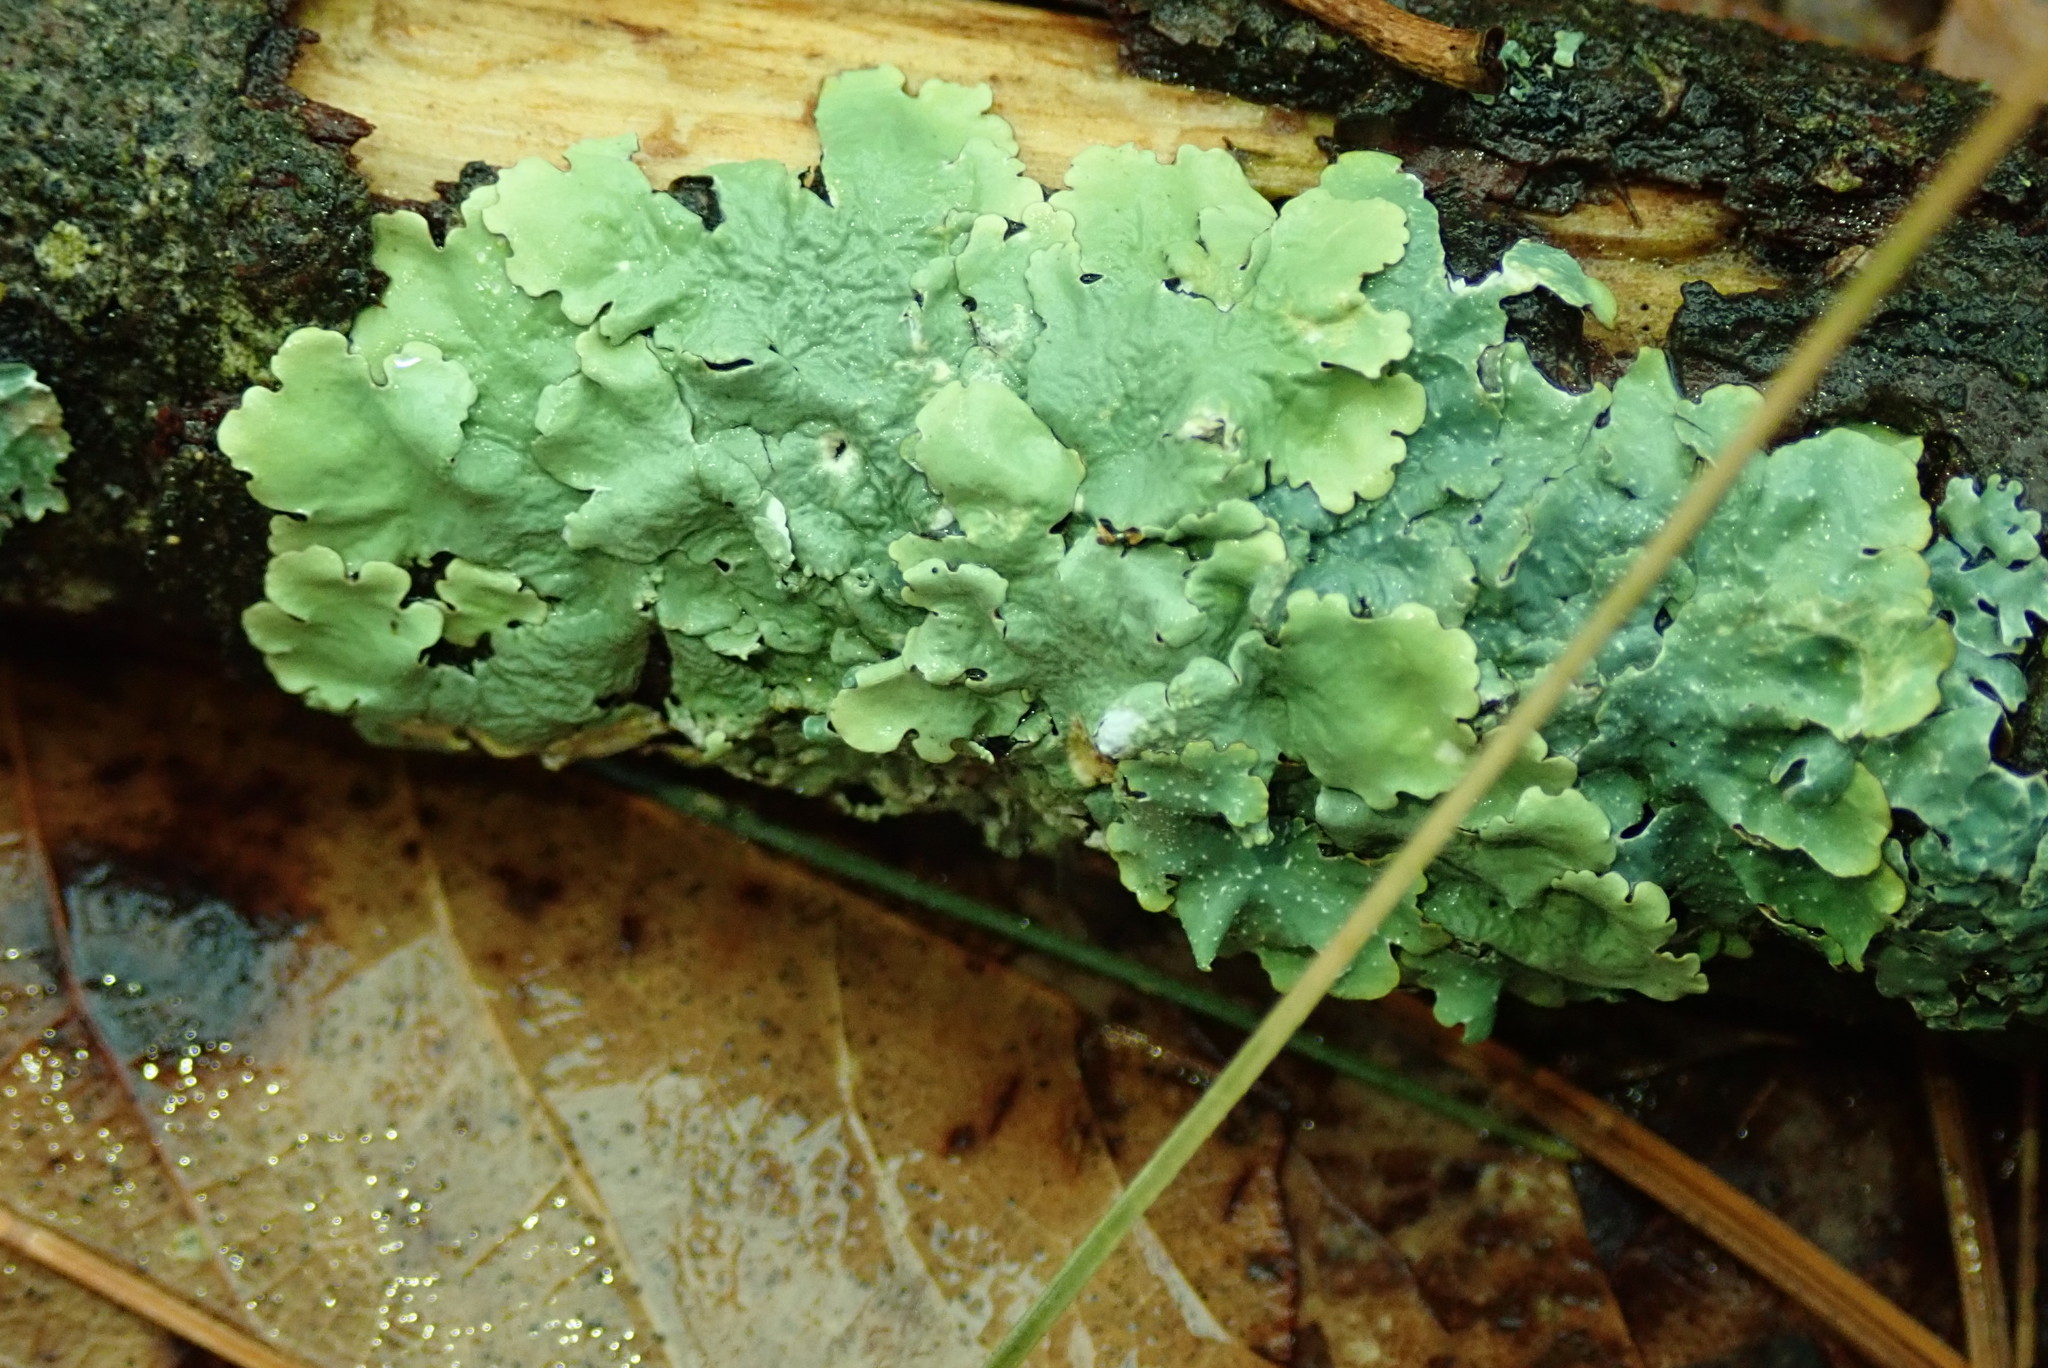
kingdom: Fungi
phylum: Ascomycota
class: Lecanoromycetes
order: Lecanorales
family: Parmeliaceae
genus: Flavoparmelia
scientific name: Flavoparmelia caperata
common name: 40-mile per hour lichen
